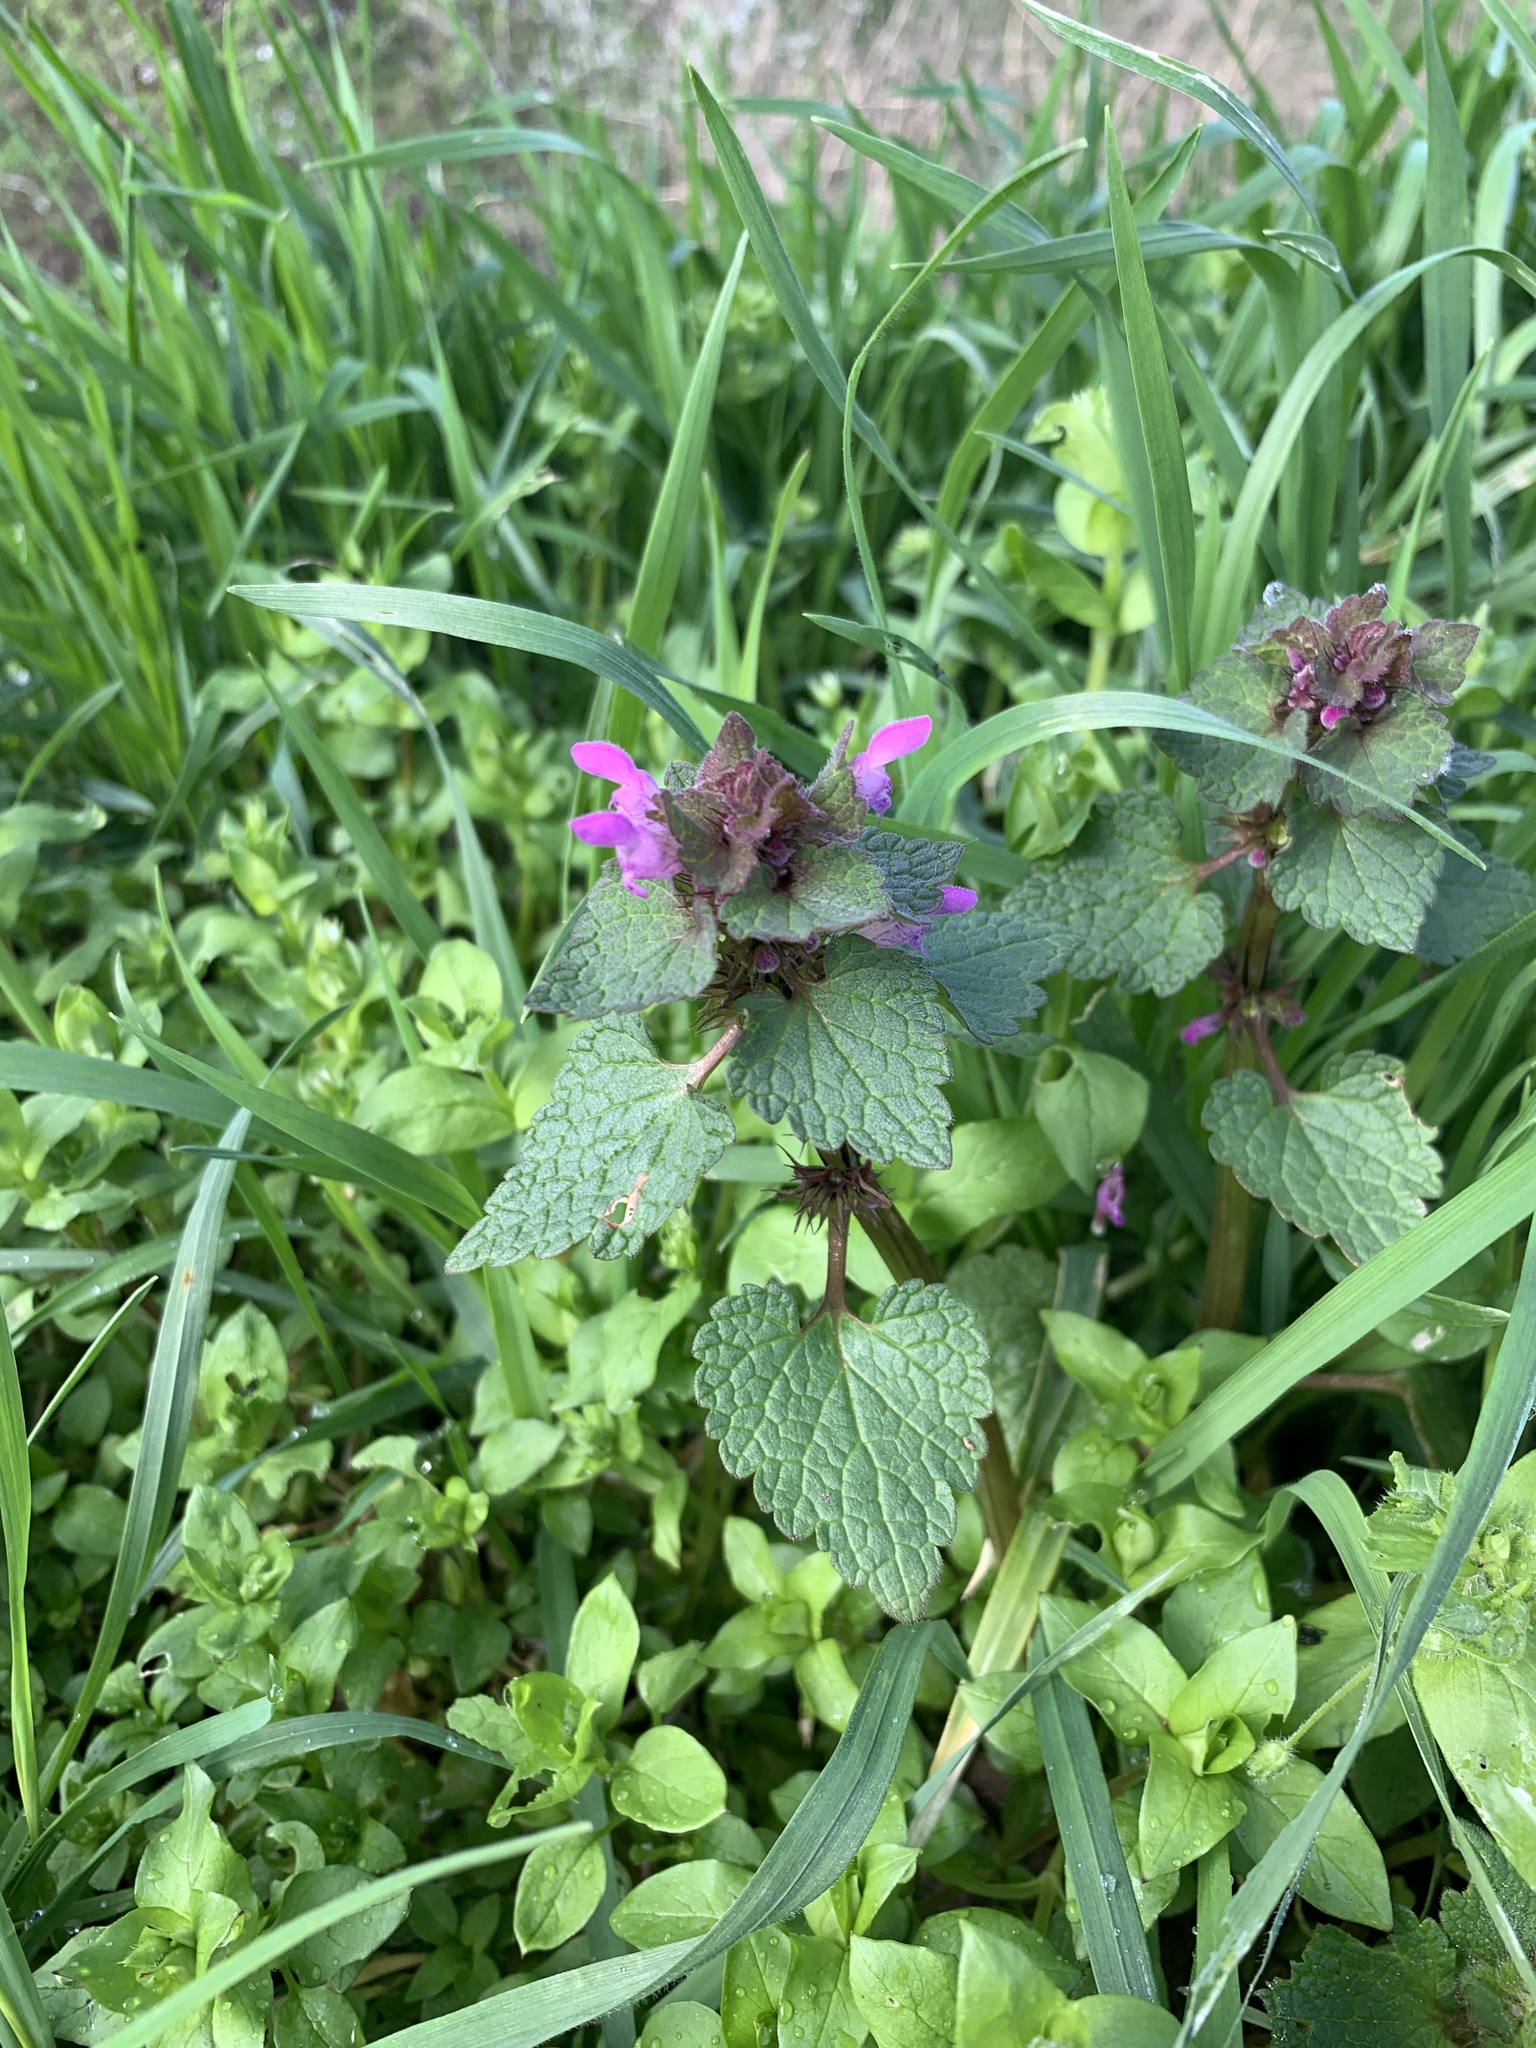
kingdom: Plantae
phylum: Tracheophyta
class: Magnoliopsida
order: Lamiales
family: Lamiaceae
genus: Lamium
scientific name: Lamium purpureum
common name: Red dead-nettle
